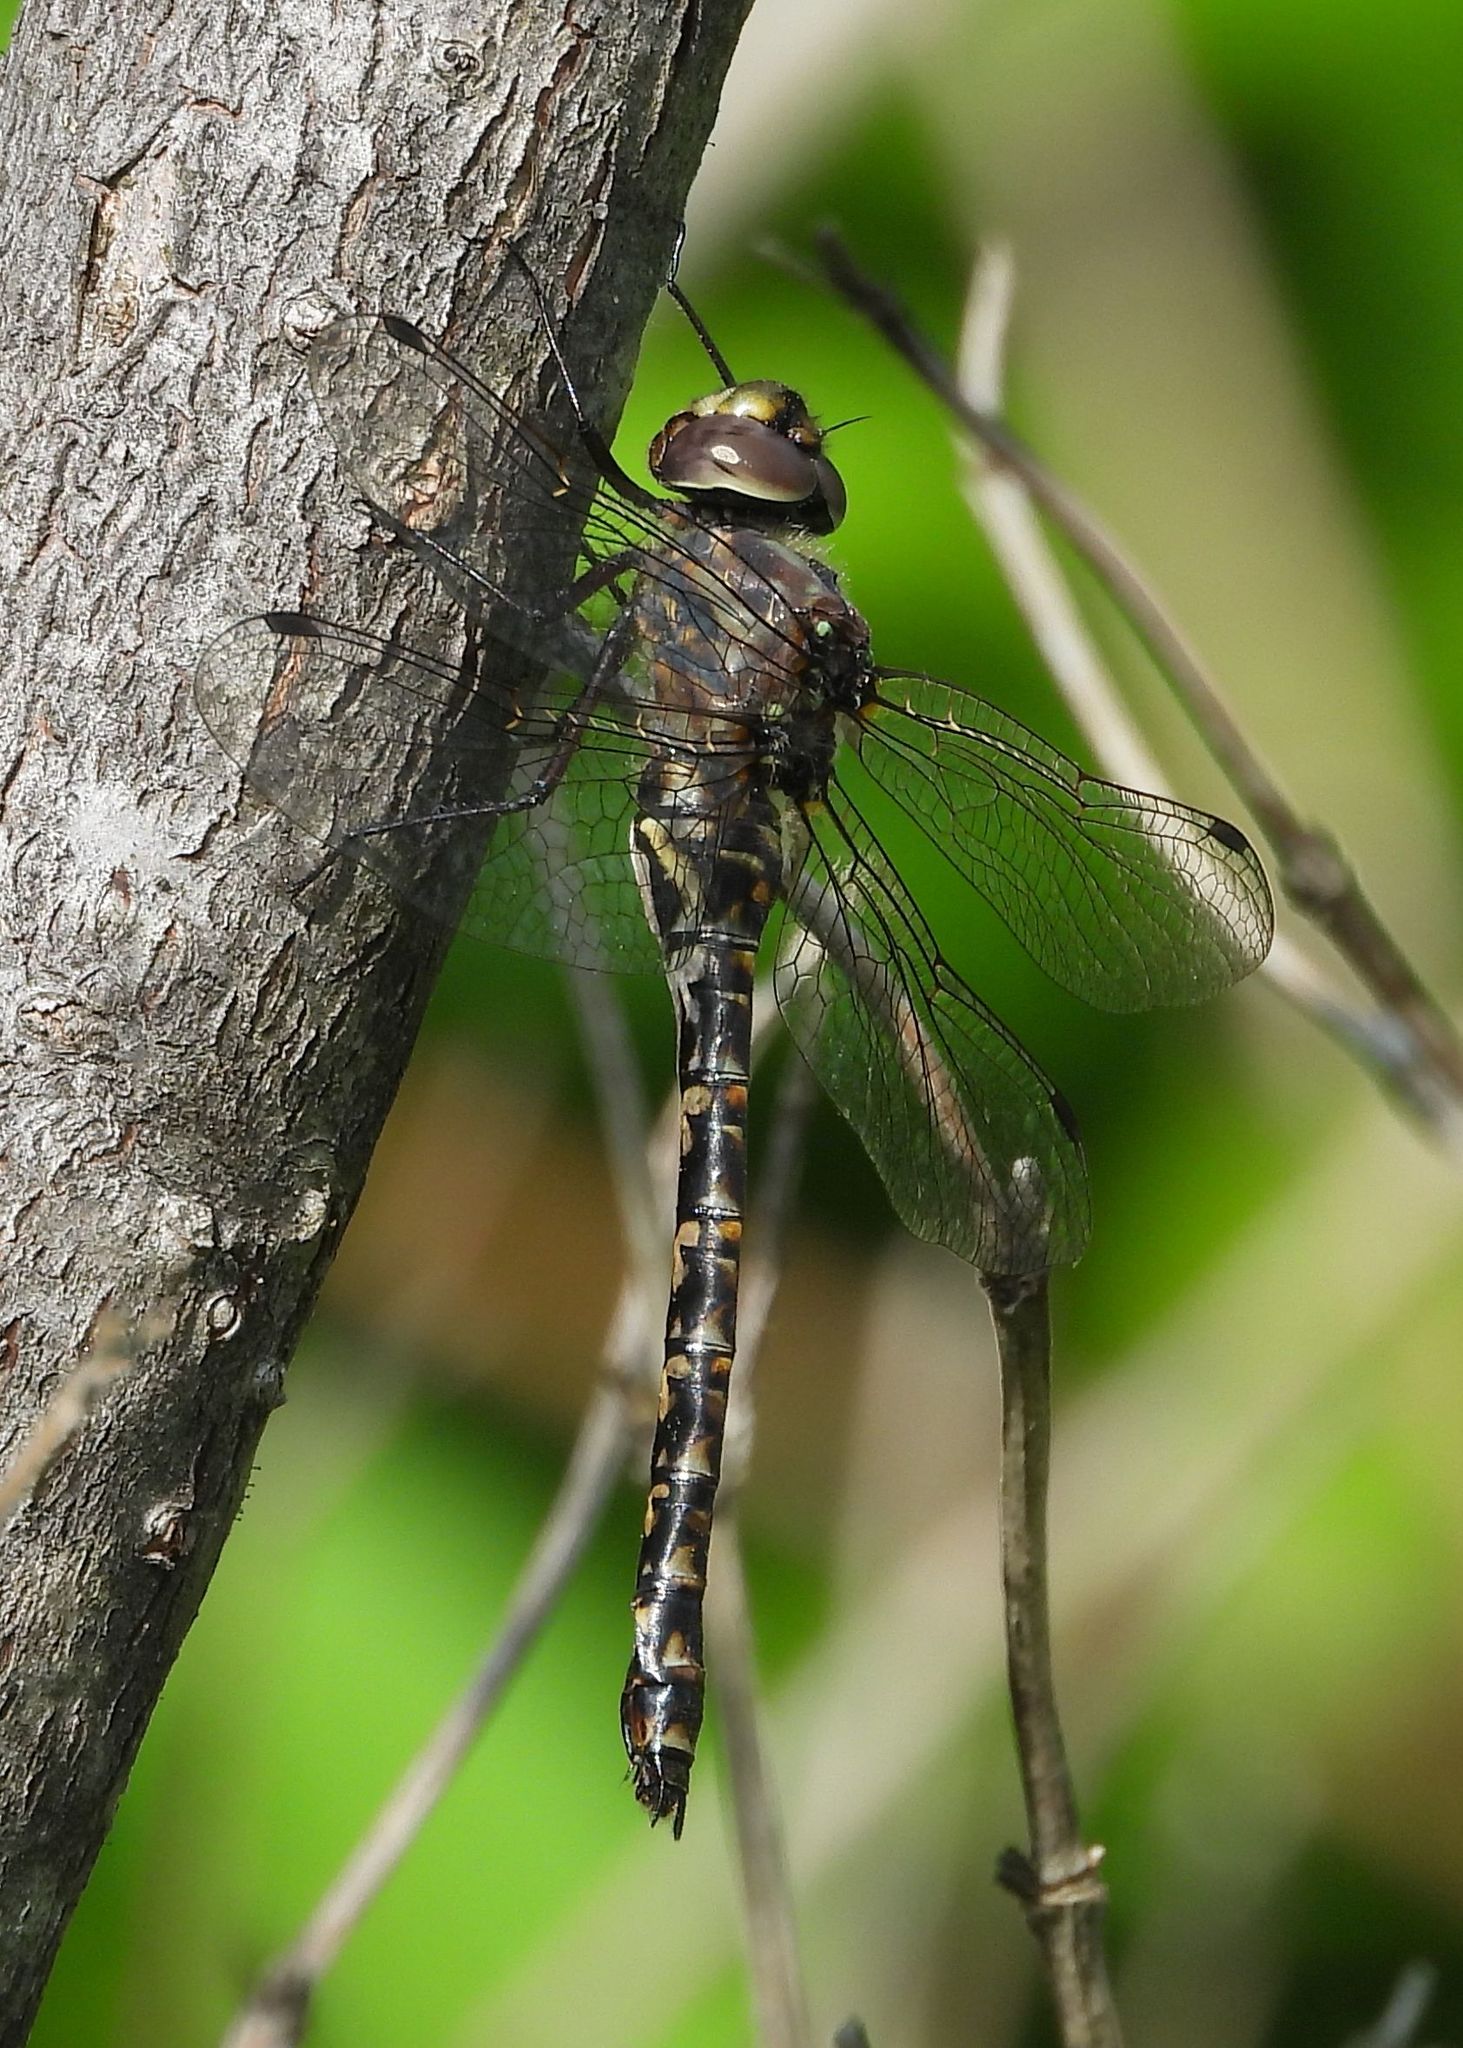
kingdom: Animalia
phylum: Arthropoda
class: Insecta
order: Odonata
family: Aeshnidae
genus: Gomphaeschna
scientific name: Gomphaeschna furcillata
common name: Harlequin darner
